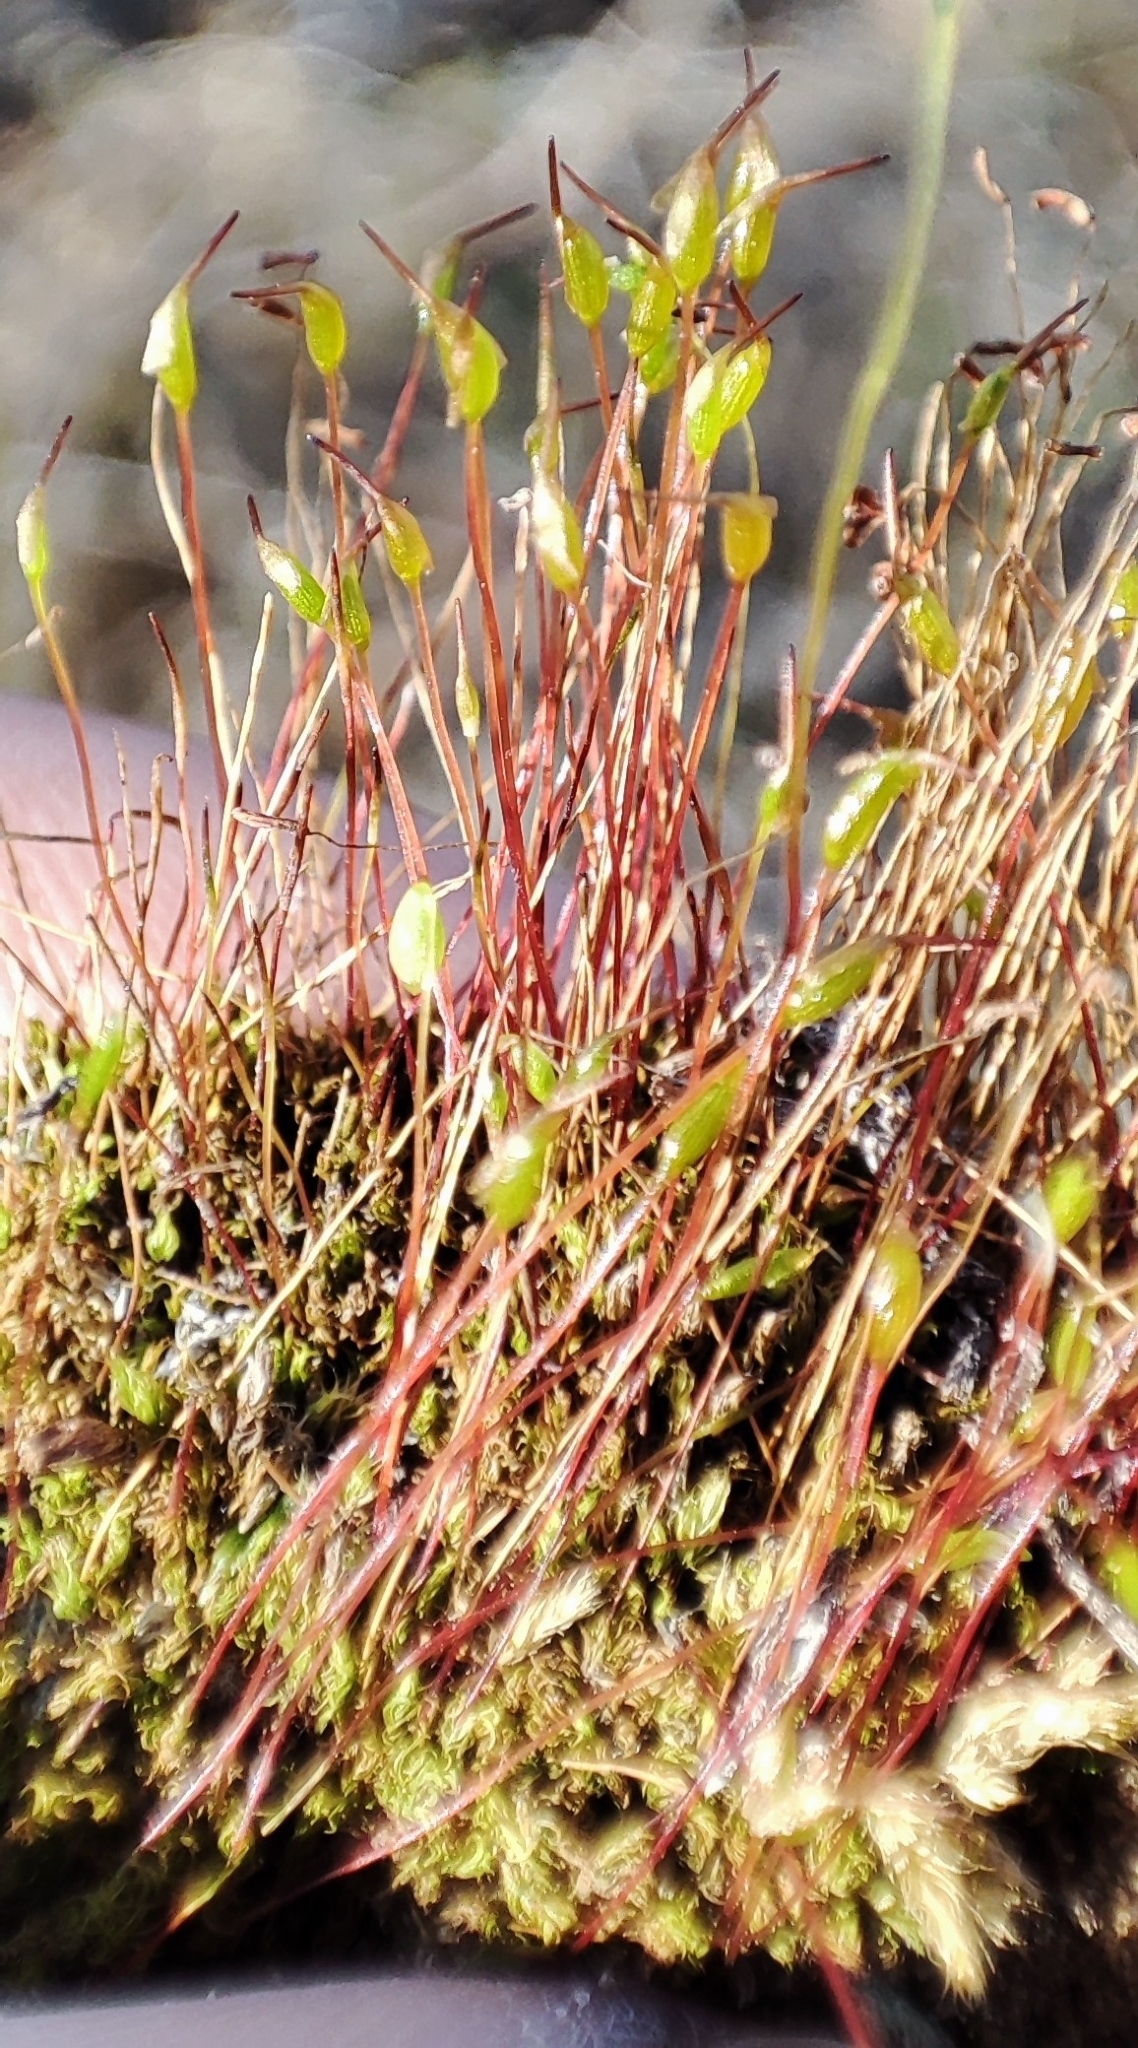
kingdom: Plantae
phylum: Bryophyta
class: Bryopsida
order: Dicranales
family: Ditrichaceae
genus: Ceratodon
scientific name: Ceratodon purpureus
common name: Redshank
